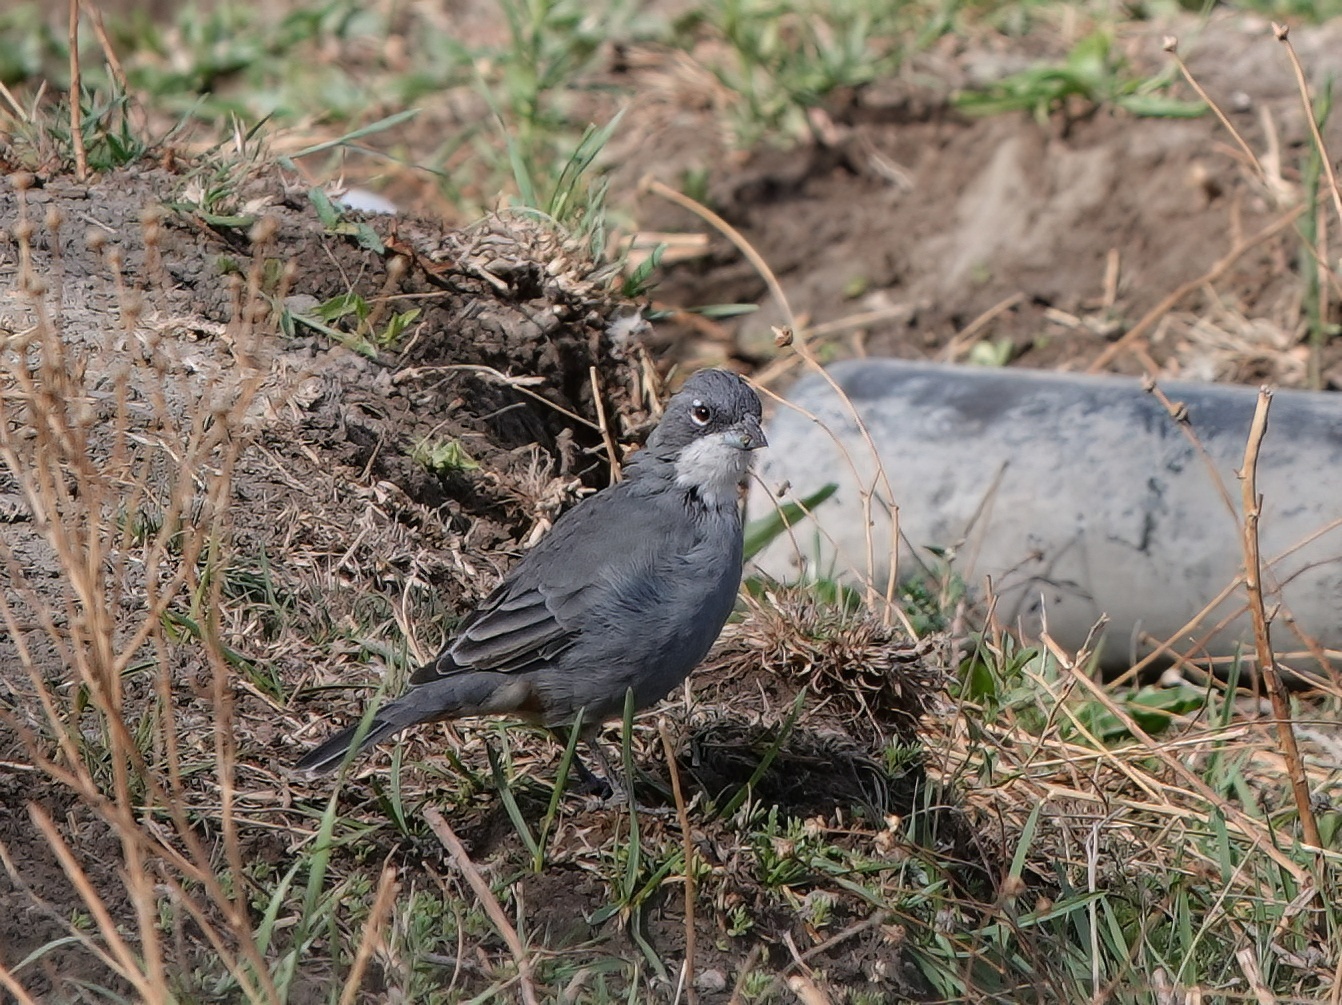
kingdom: Animalia
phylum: Chordata
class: Aves
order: Passeriformes
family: Thraupidae
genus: Diuca
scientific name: Diuca diuca
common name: Common diuca finch
